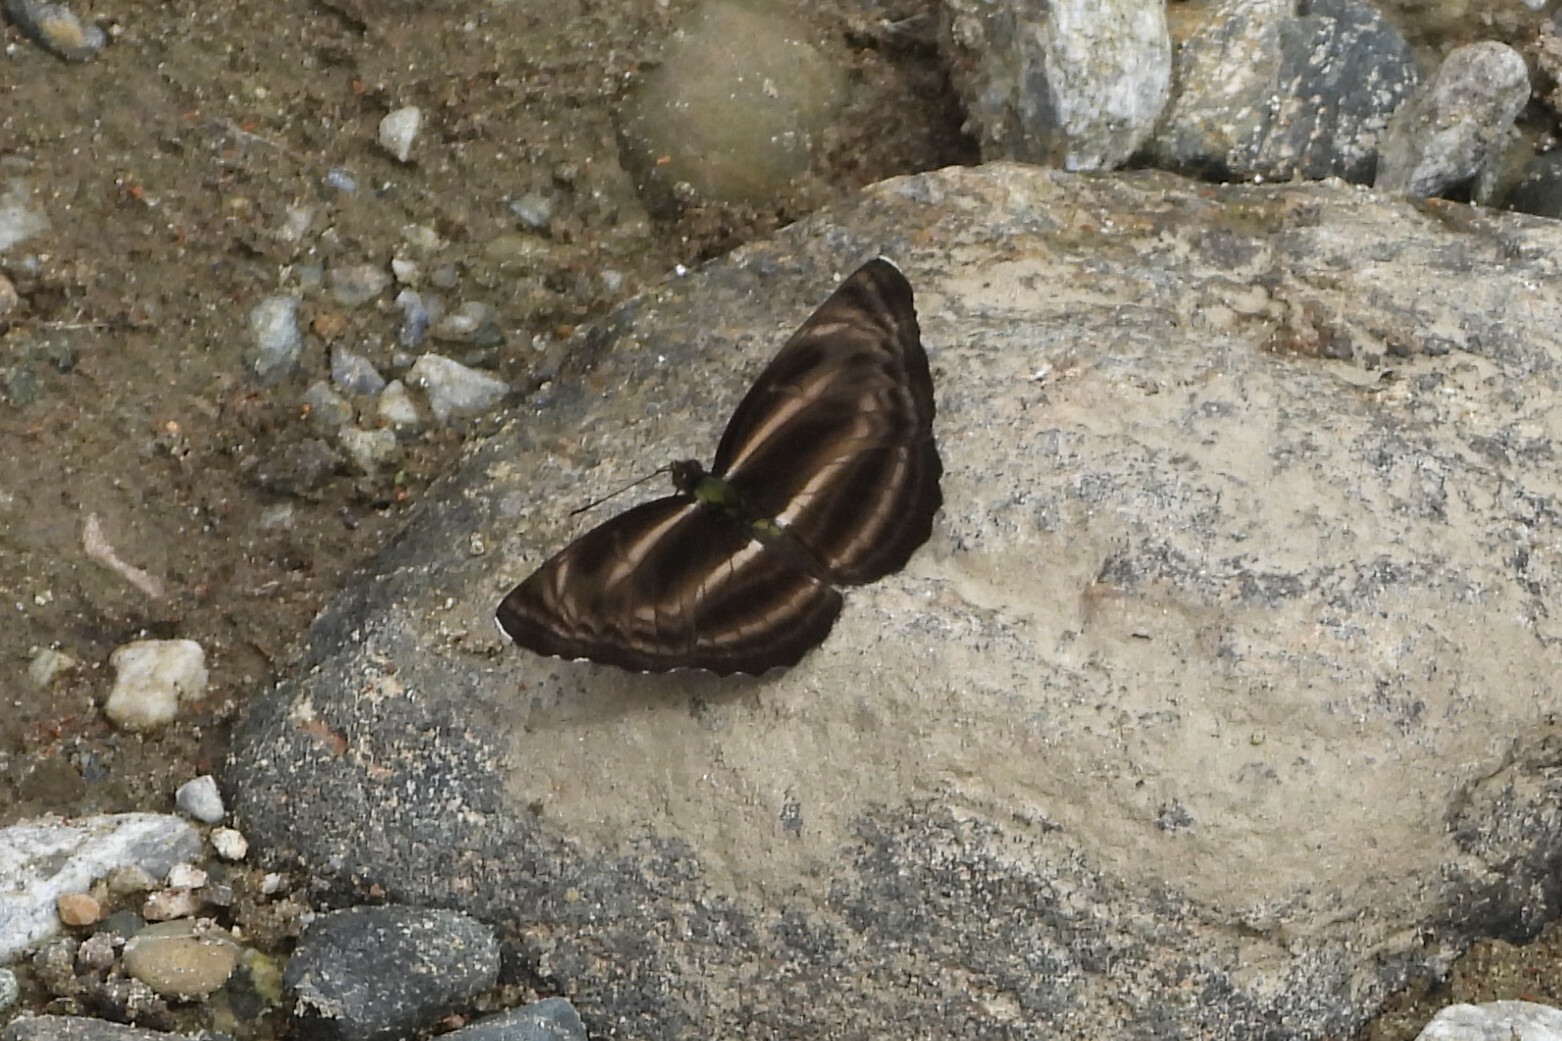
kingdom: Animalia
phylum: Arthropoda
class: Insecta
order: Lepidoptera
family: Nymphalidae
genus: Neptis
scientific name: Neptis
